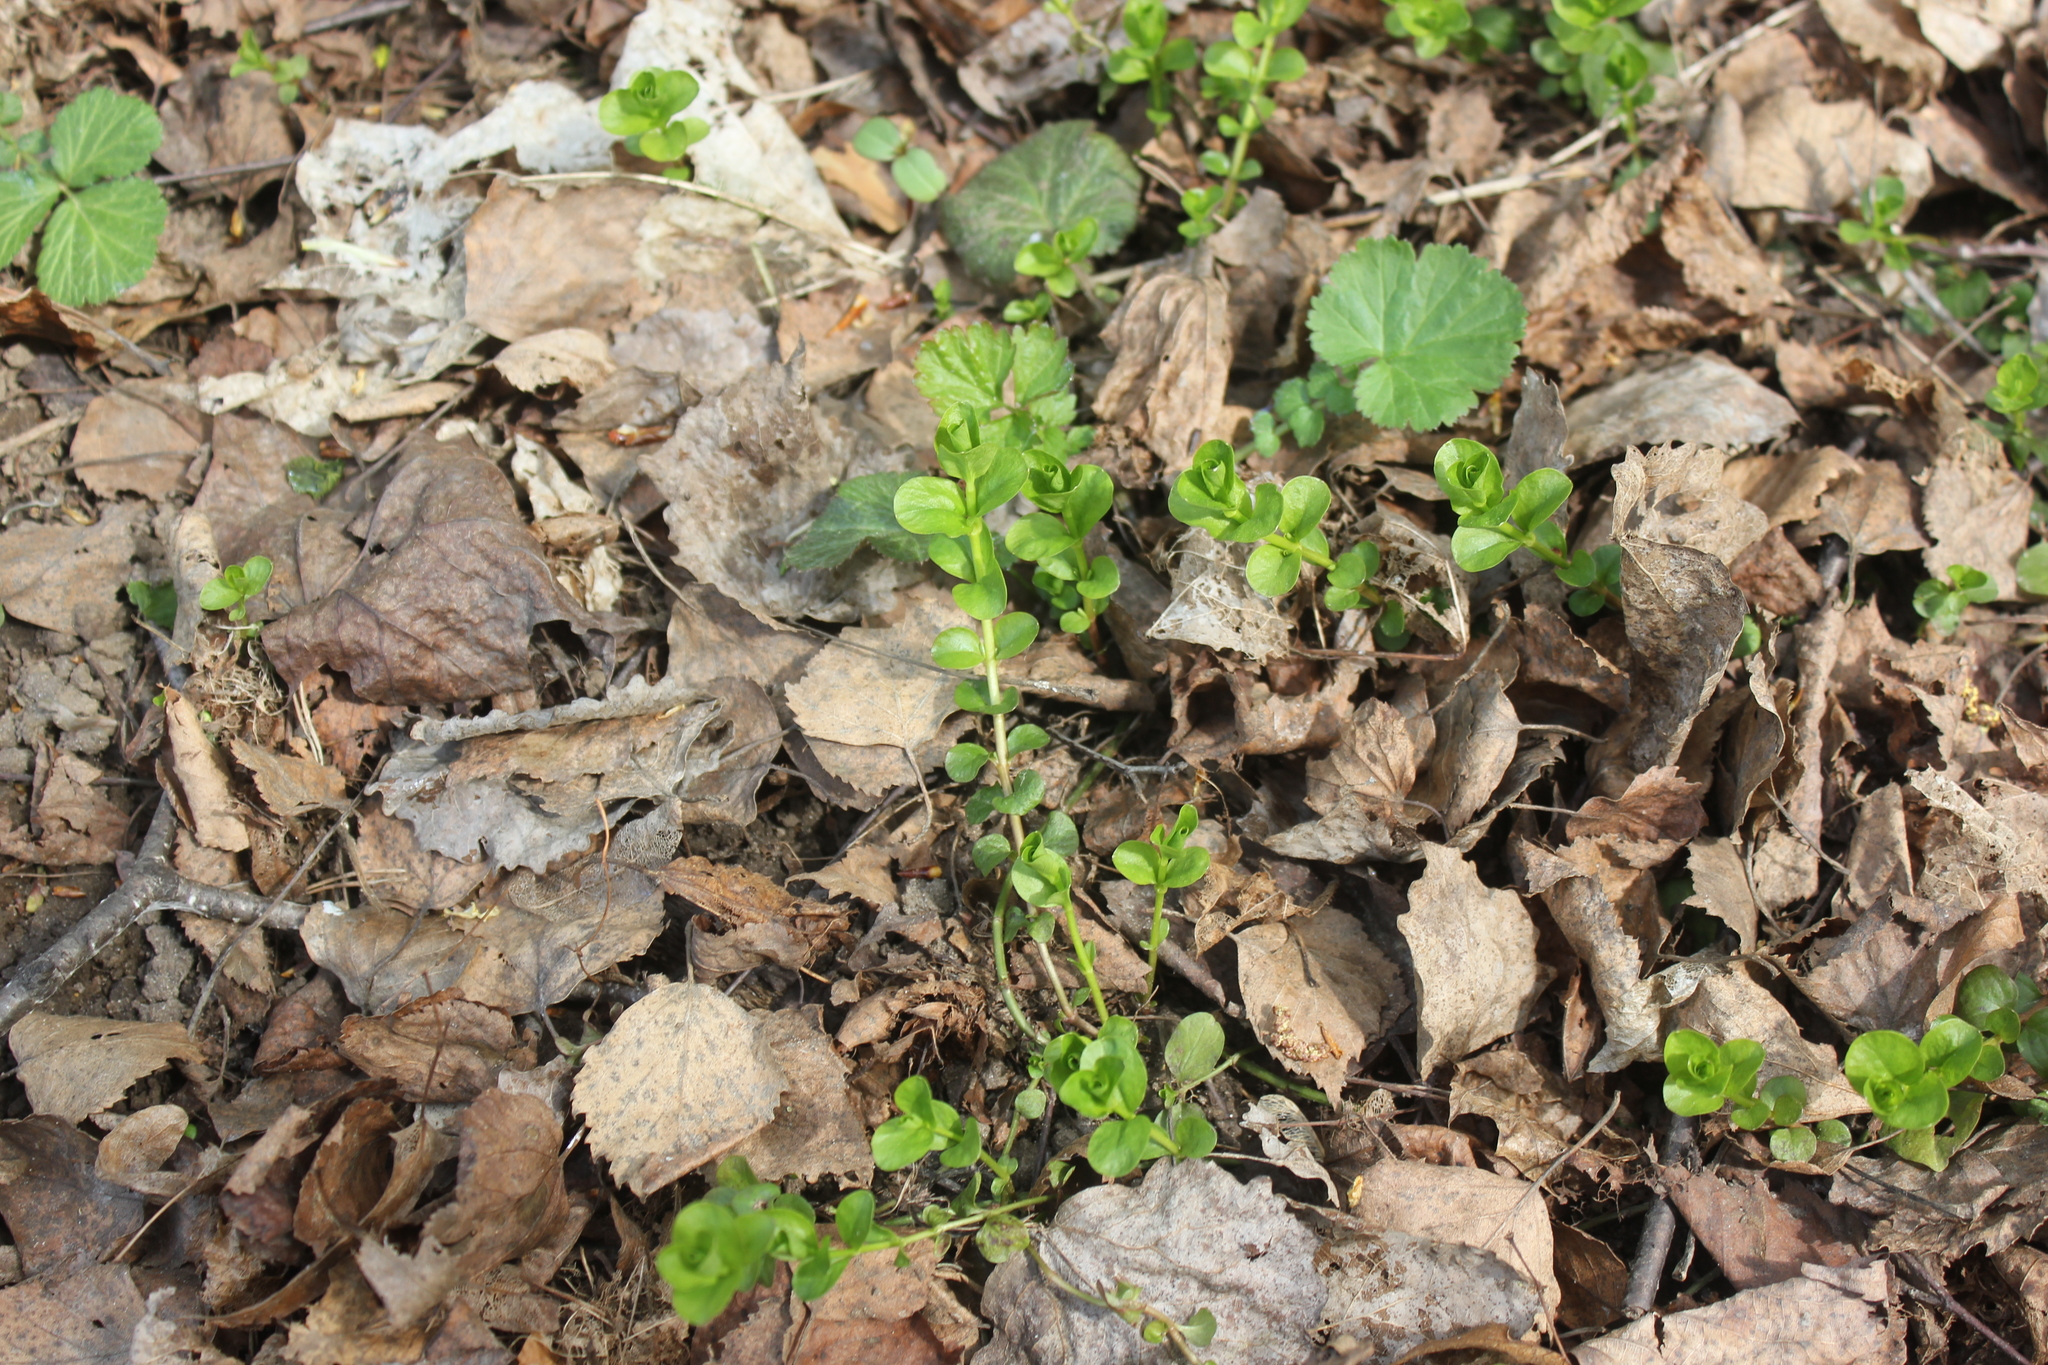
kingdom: Plantae
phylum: Tracheophyta
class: Magnoliopsida
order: Ericales
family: Primulaceae
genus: Lysimachia
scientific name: Lysimachia nummularia
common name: Moneywort
